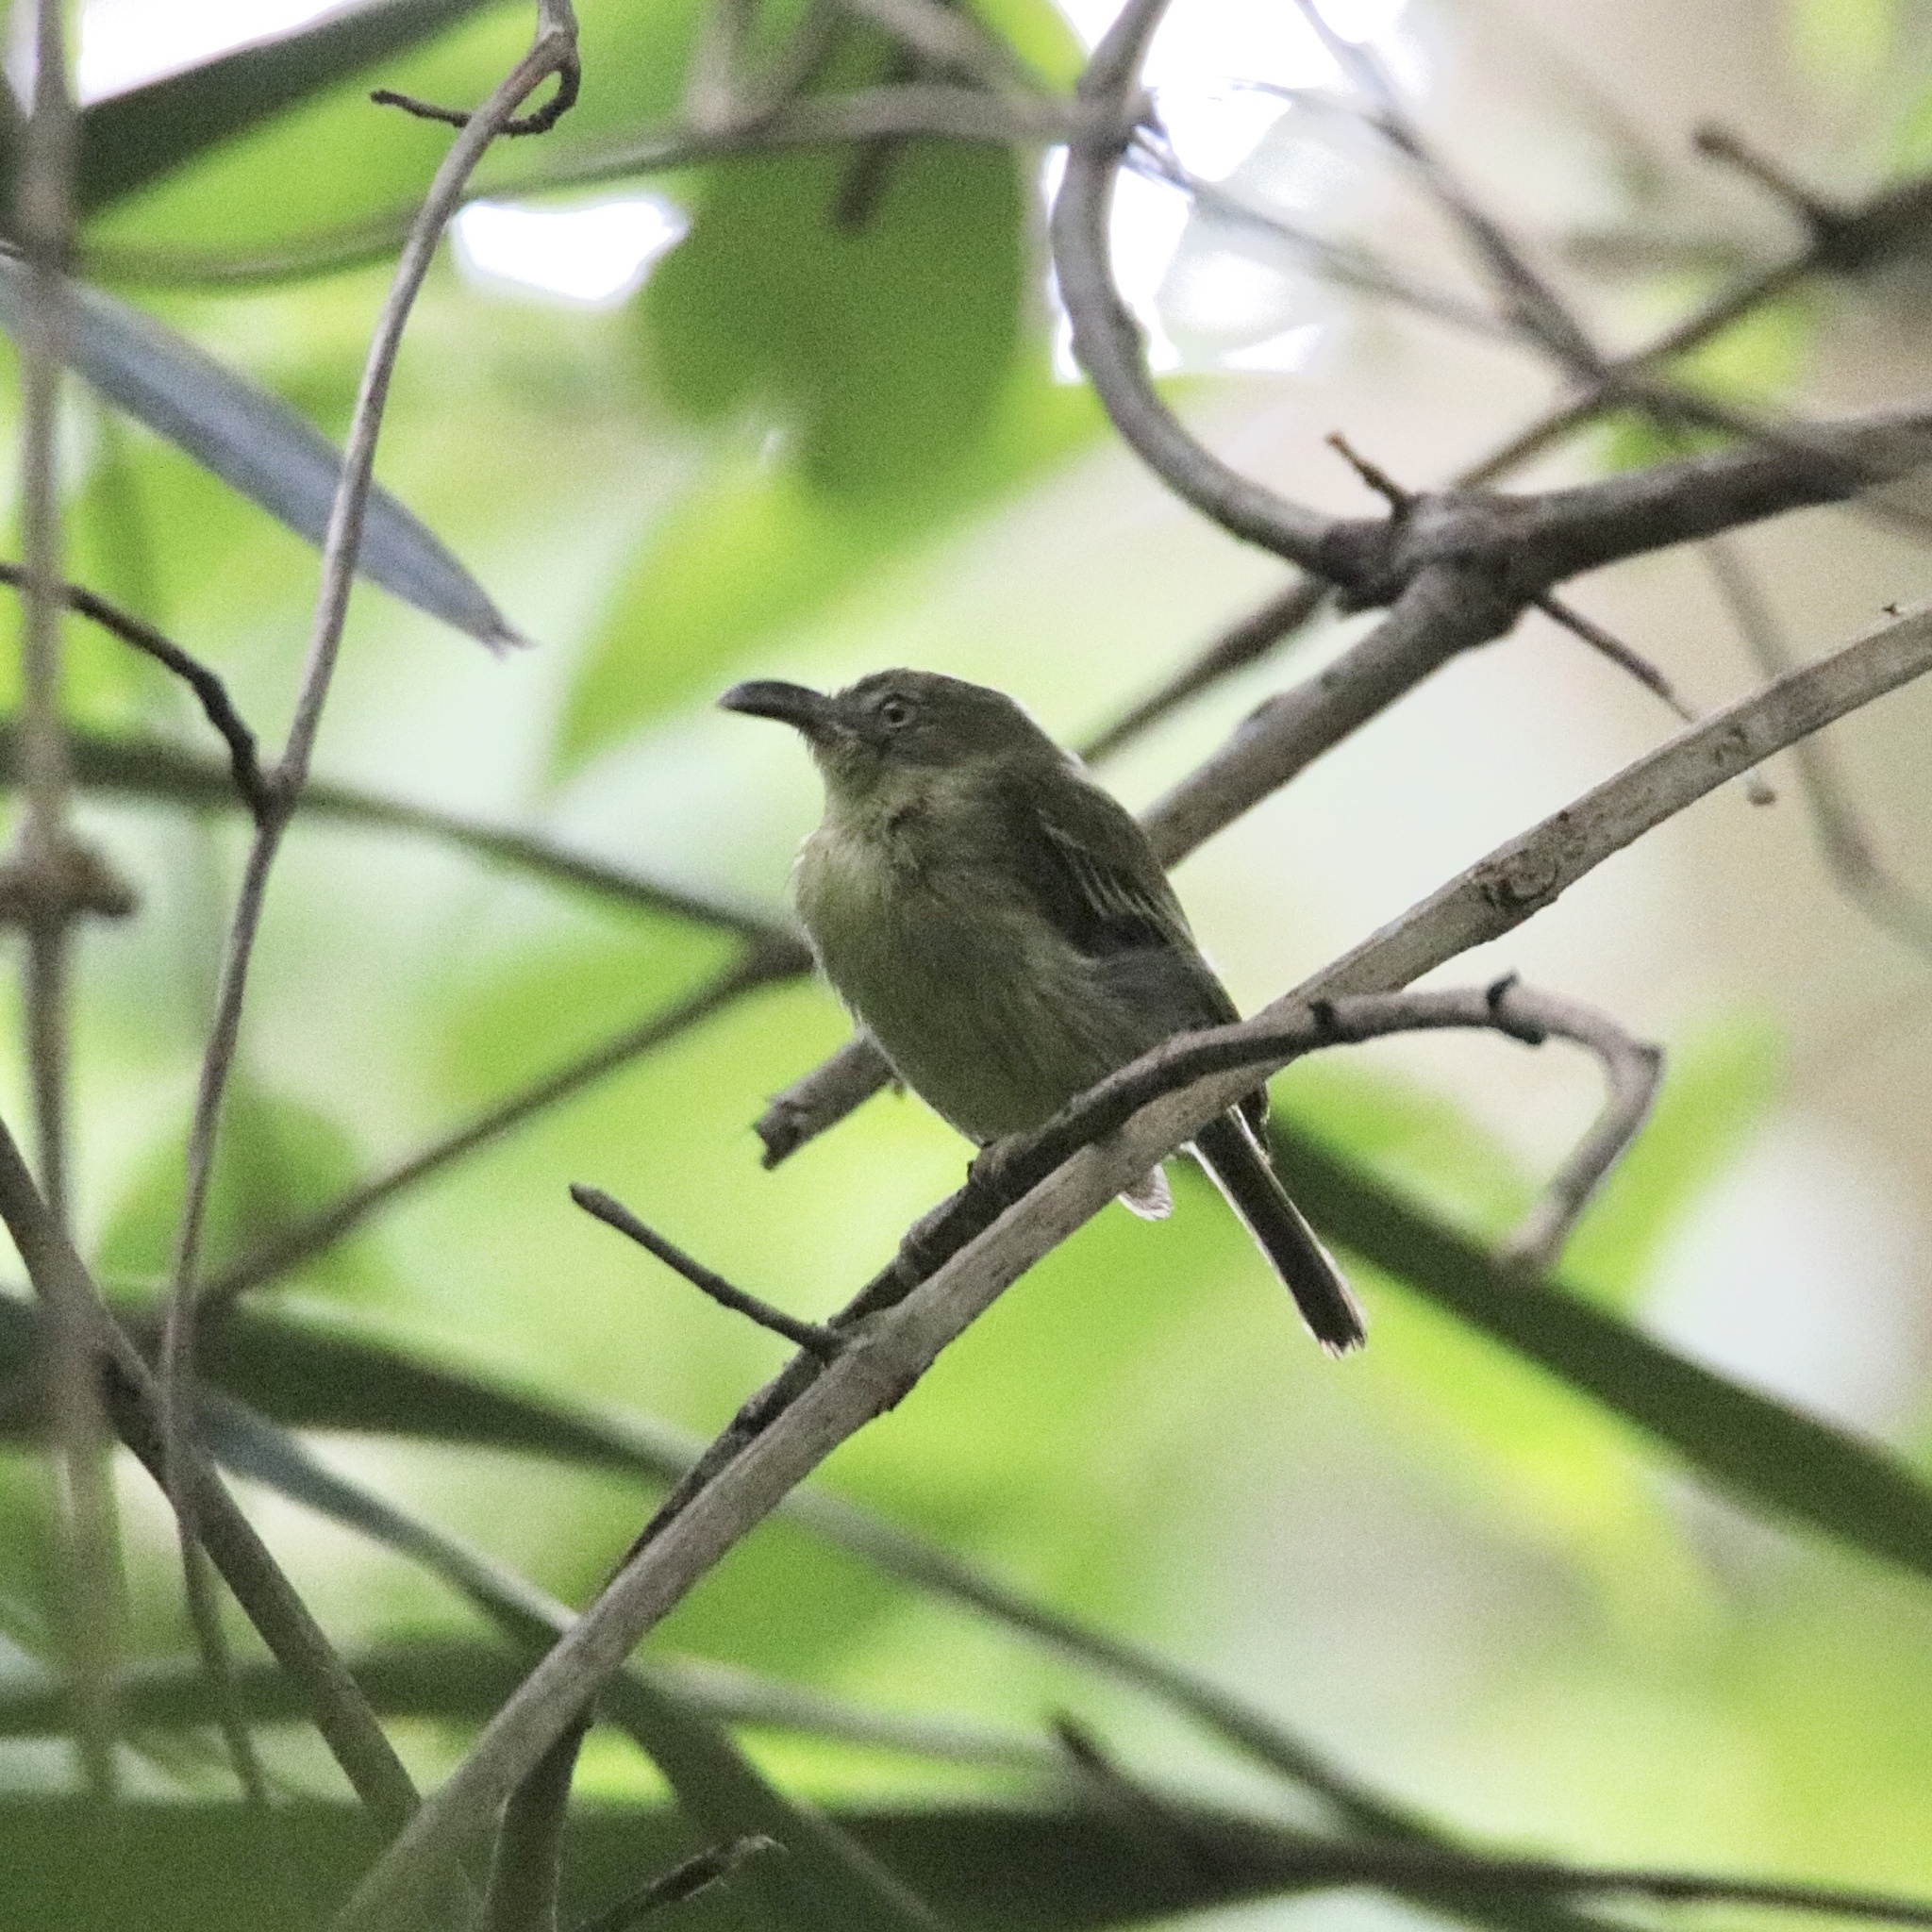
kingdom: Animalia
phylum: Chordata
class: Aves
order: Passeriformes
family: Tyrannidae
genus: Oncostoma
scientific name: Oncostoma olivaceum
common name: Southern bentbill
